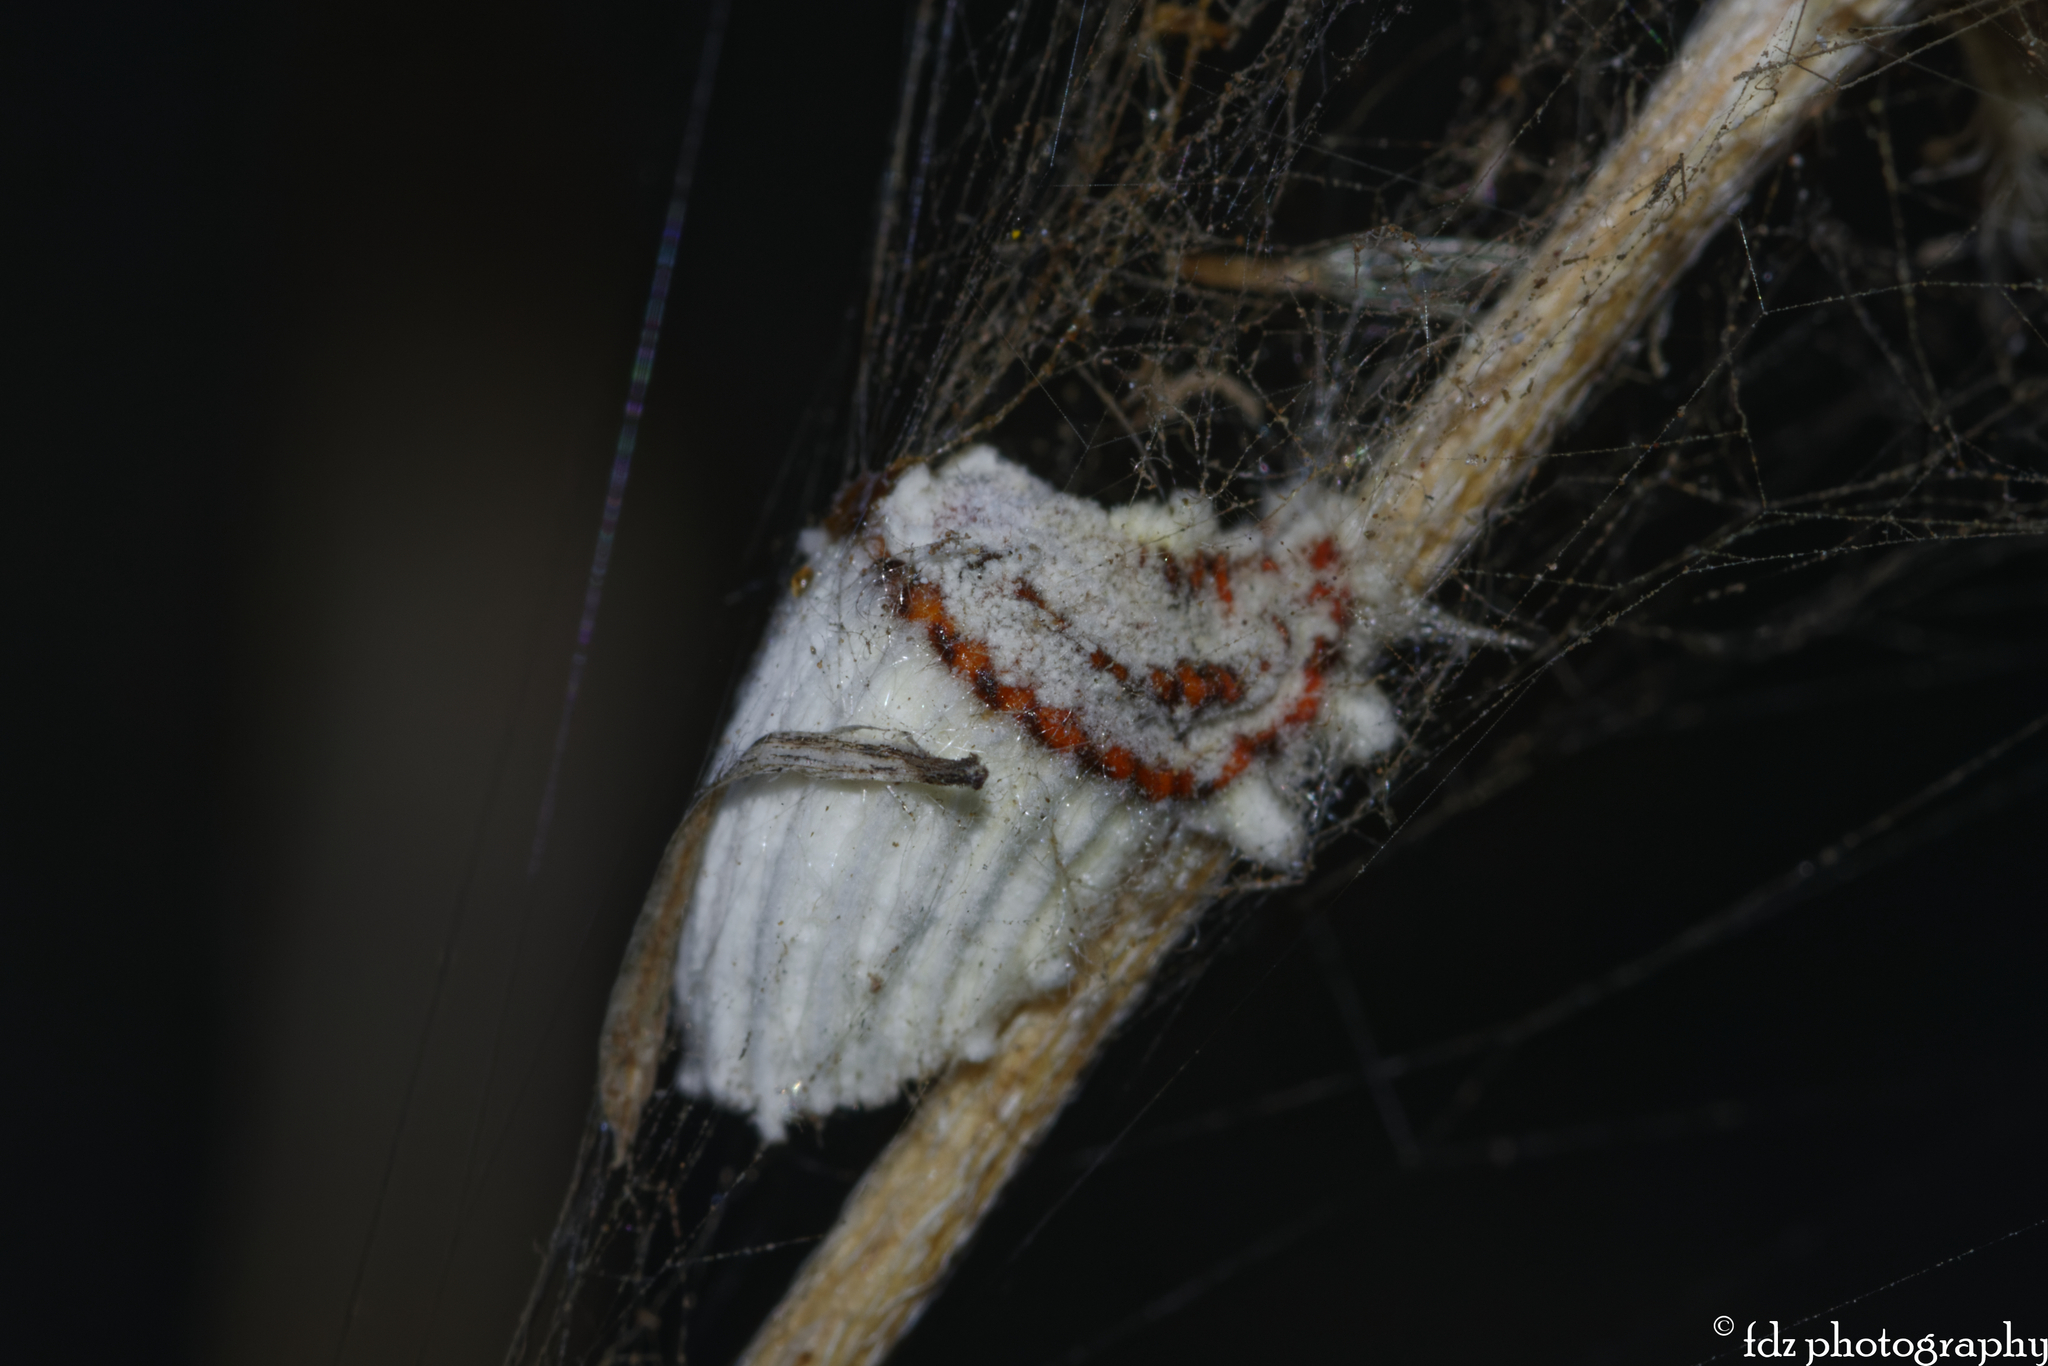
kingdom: Animalia
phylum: Arthropoda
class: Insecta
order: Hemiptera
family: Margarodidae
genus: Icerya
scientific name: Icerya purchasi
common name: Cottony cushion scale
